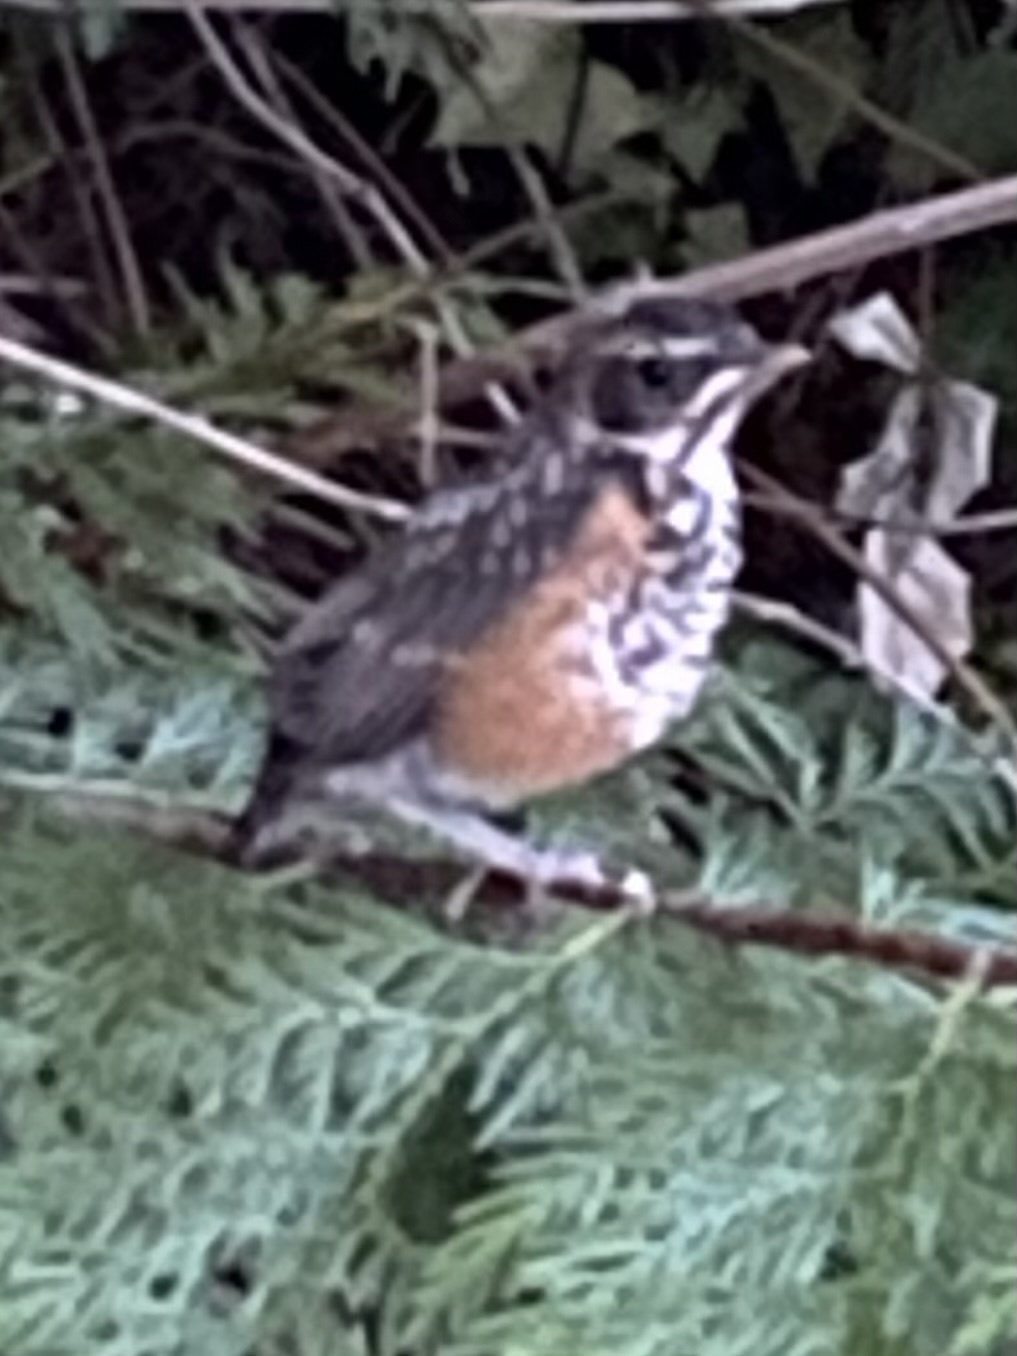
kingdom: Animalia
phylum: Chordata
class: Aves
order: Passeriformes
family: Turdidae
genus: Turdus
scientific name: Turdus migratorius
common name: American robin
